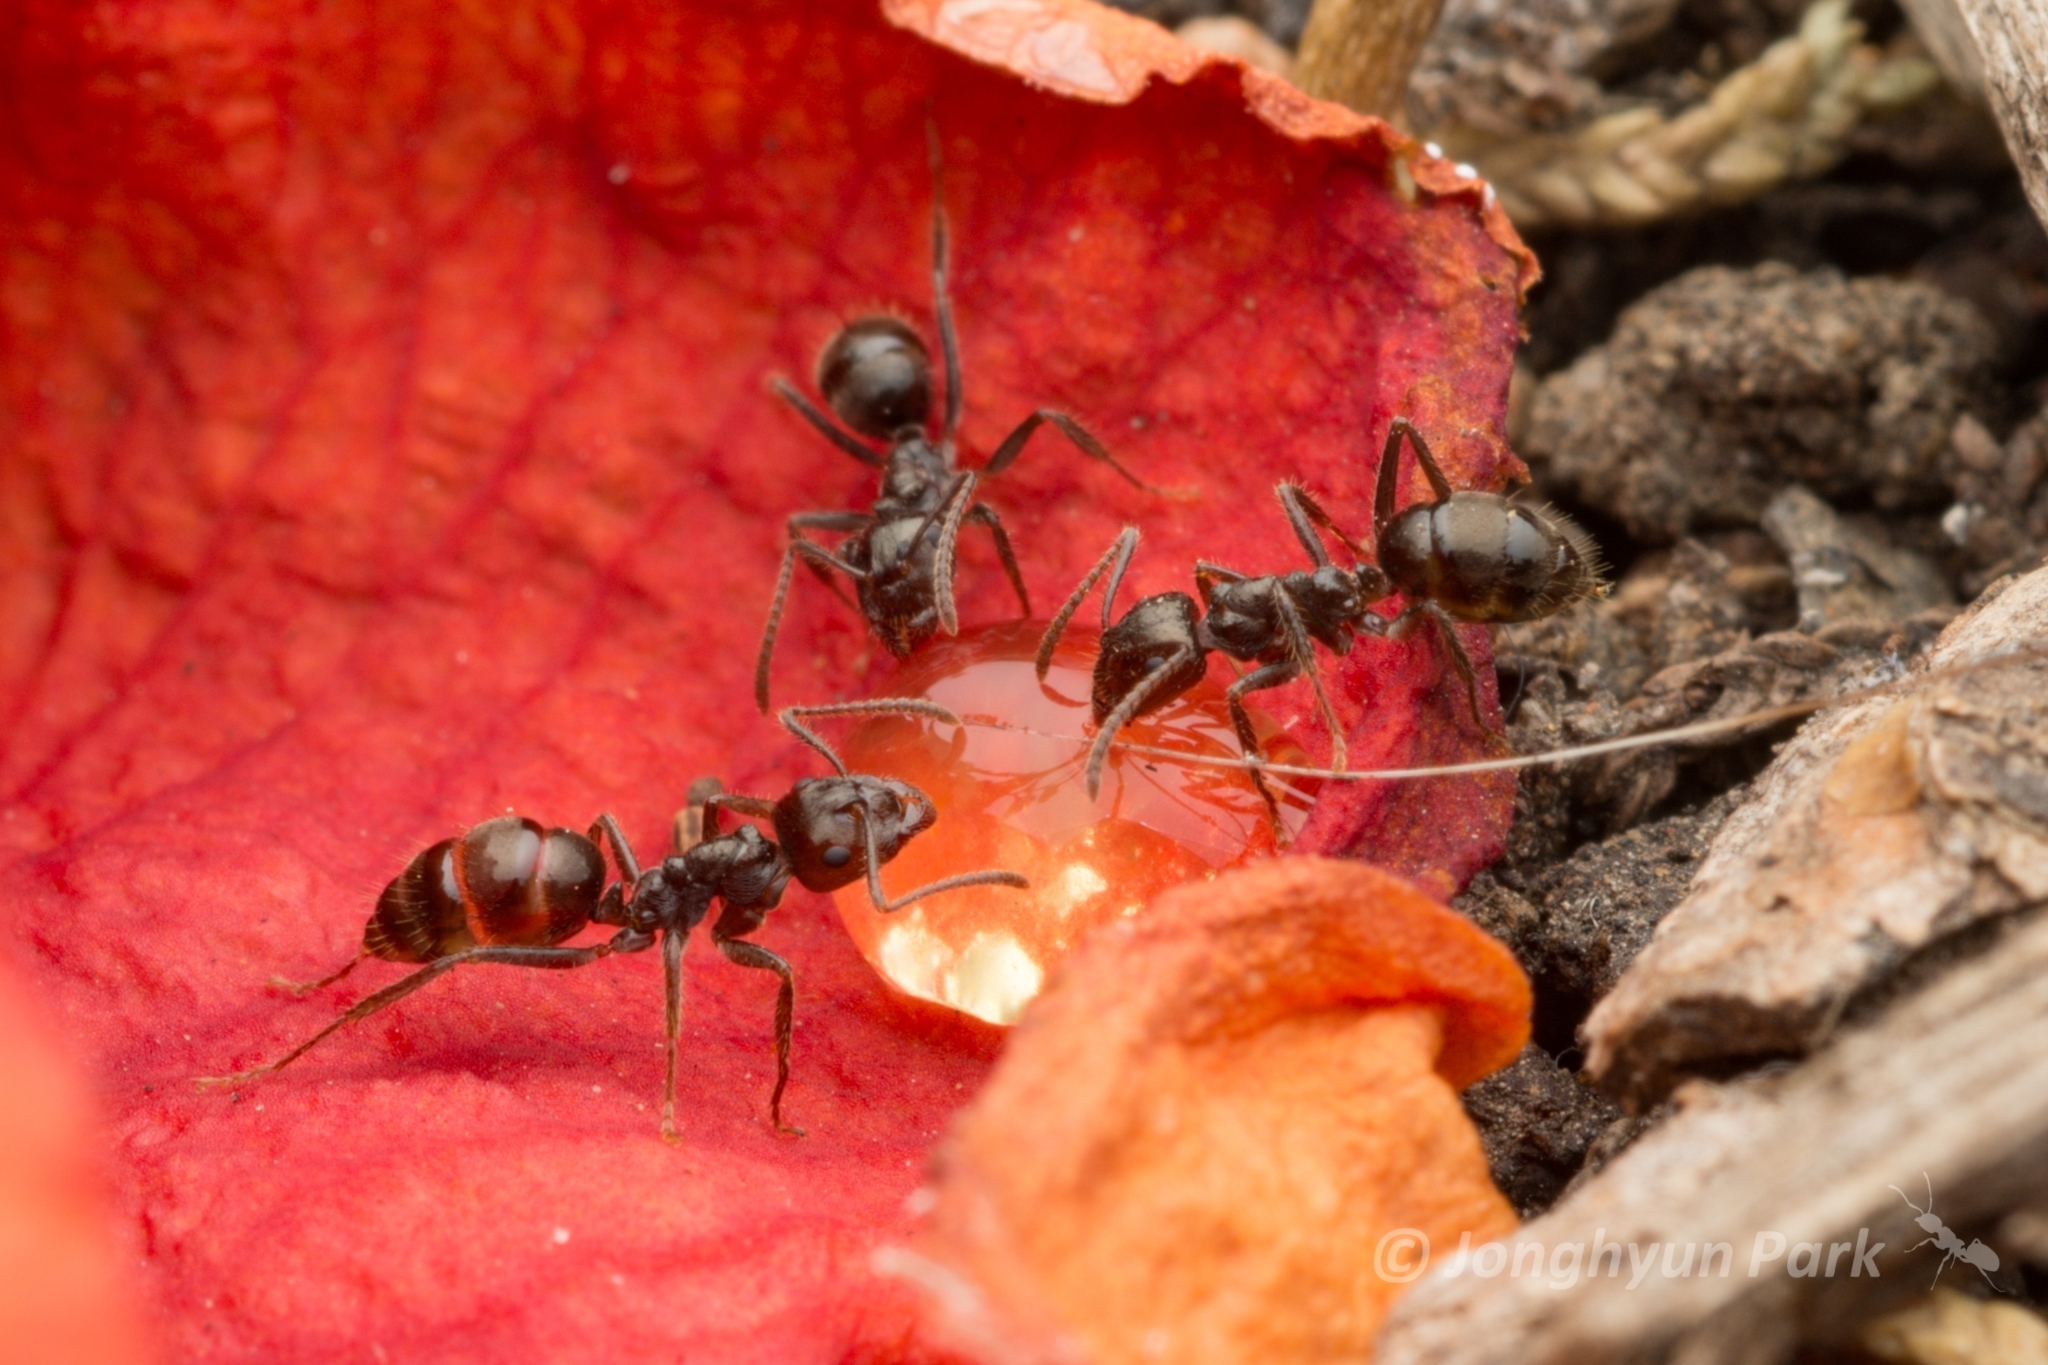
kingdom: Animalia
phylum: Arthropoda
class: Insecta
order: Hymenoptera
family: Formicidae
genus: Notoncus
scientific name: Notoncus capitatus
